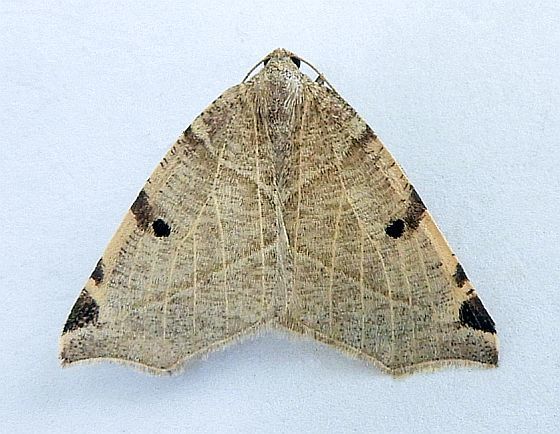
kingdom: Animalia
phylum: Arthropoda
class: Insecta
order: Lepidoptera
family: Geometridae
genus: Neoterpes
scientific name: Neoterpes graefiaria
